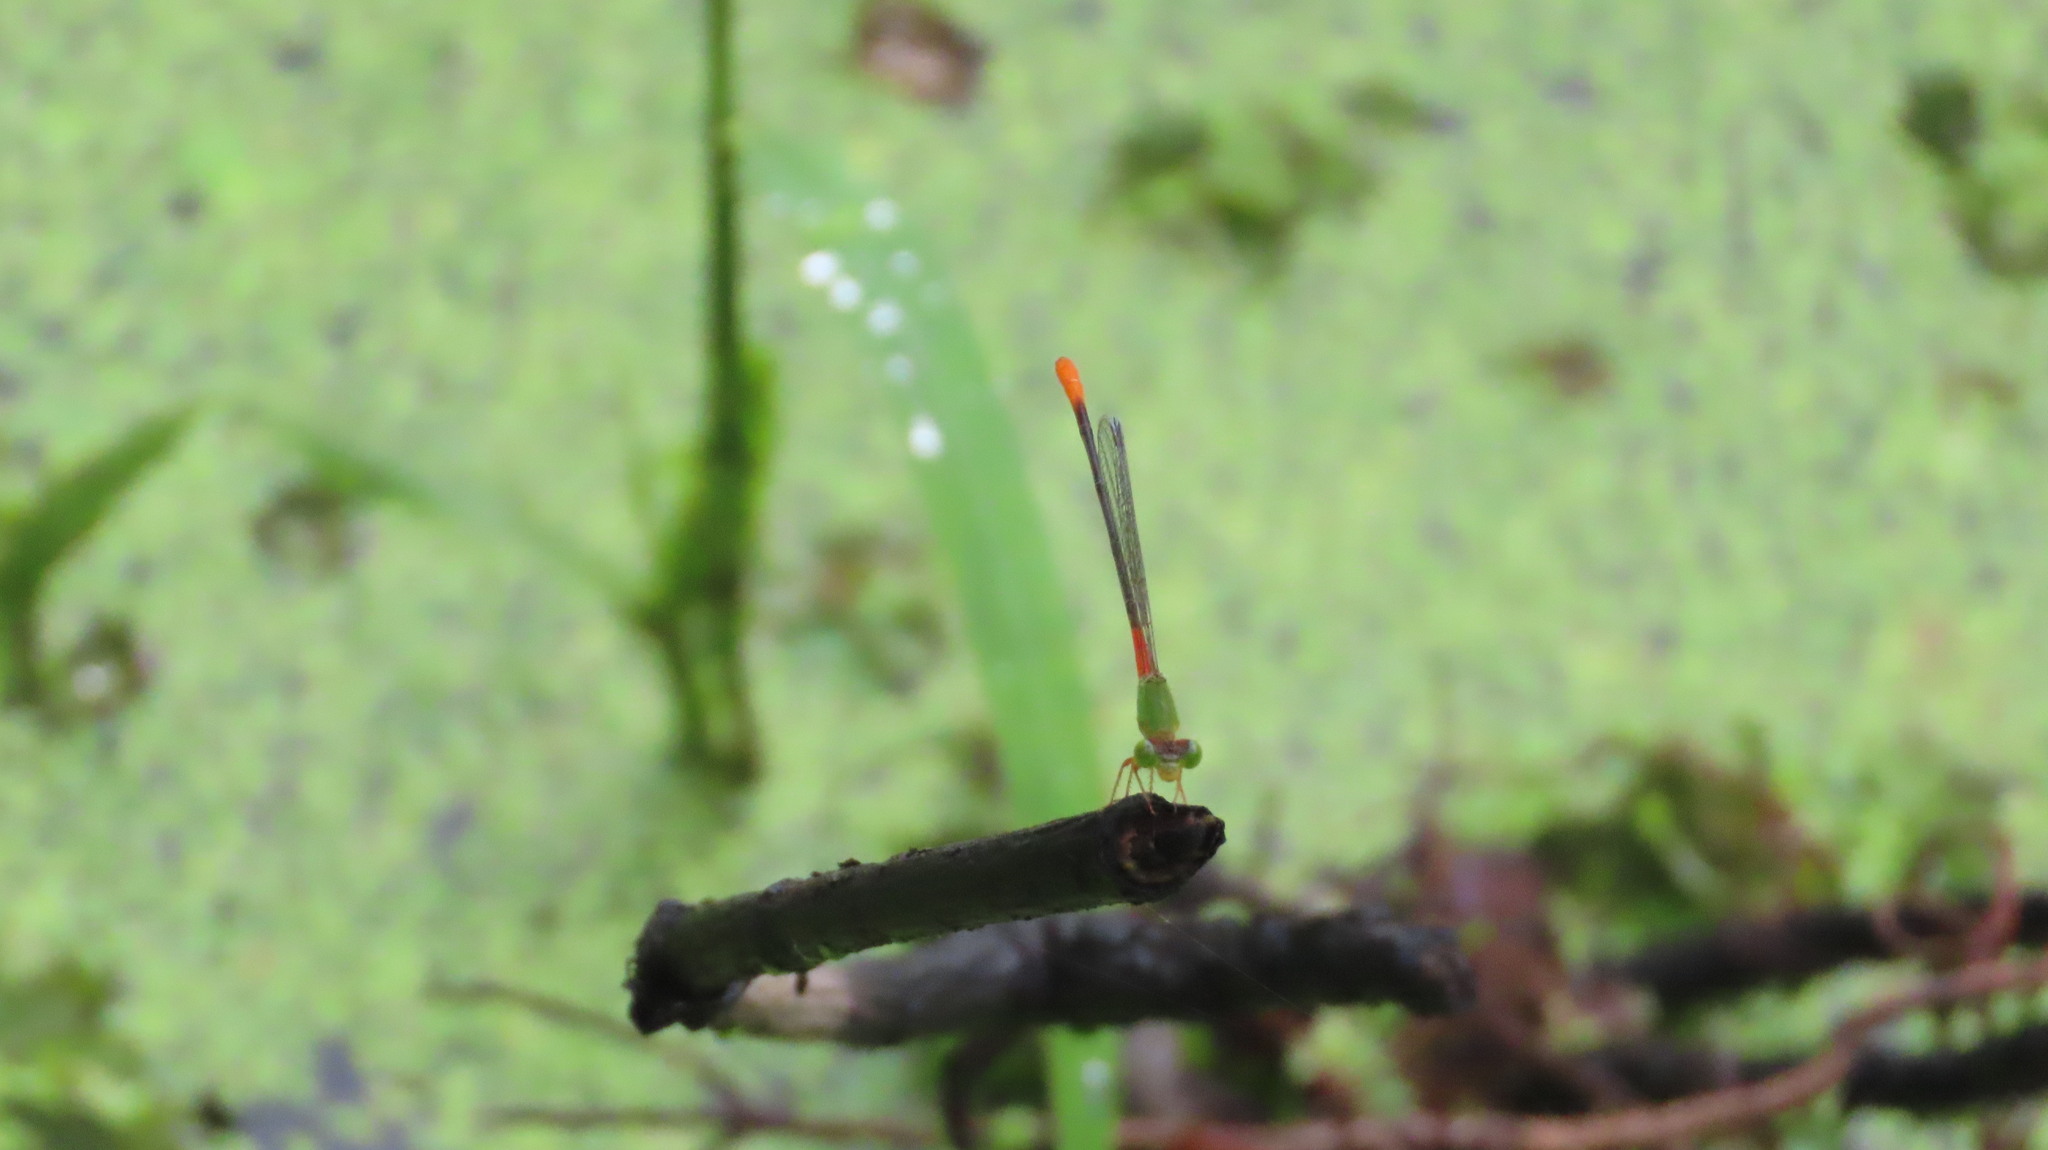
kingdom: Animalia
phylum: Arthropoda
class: Insecta
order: Odonata
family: Coenagrionidae
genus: Ceriagrion
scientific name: Ceriagrion cerinorubellum
